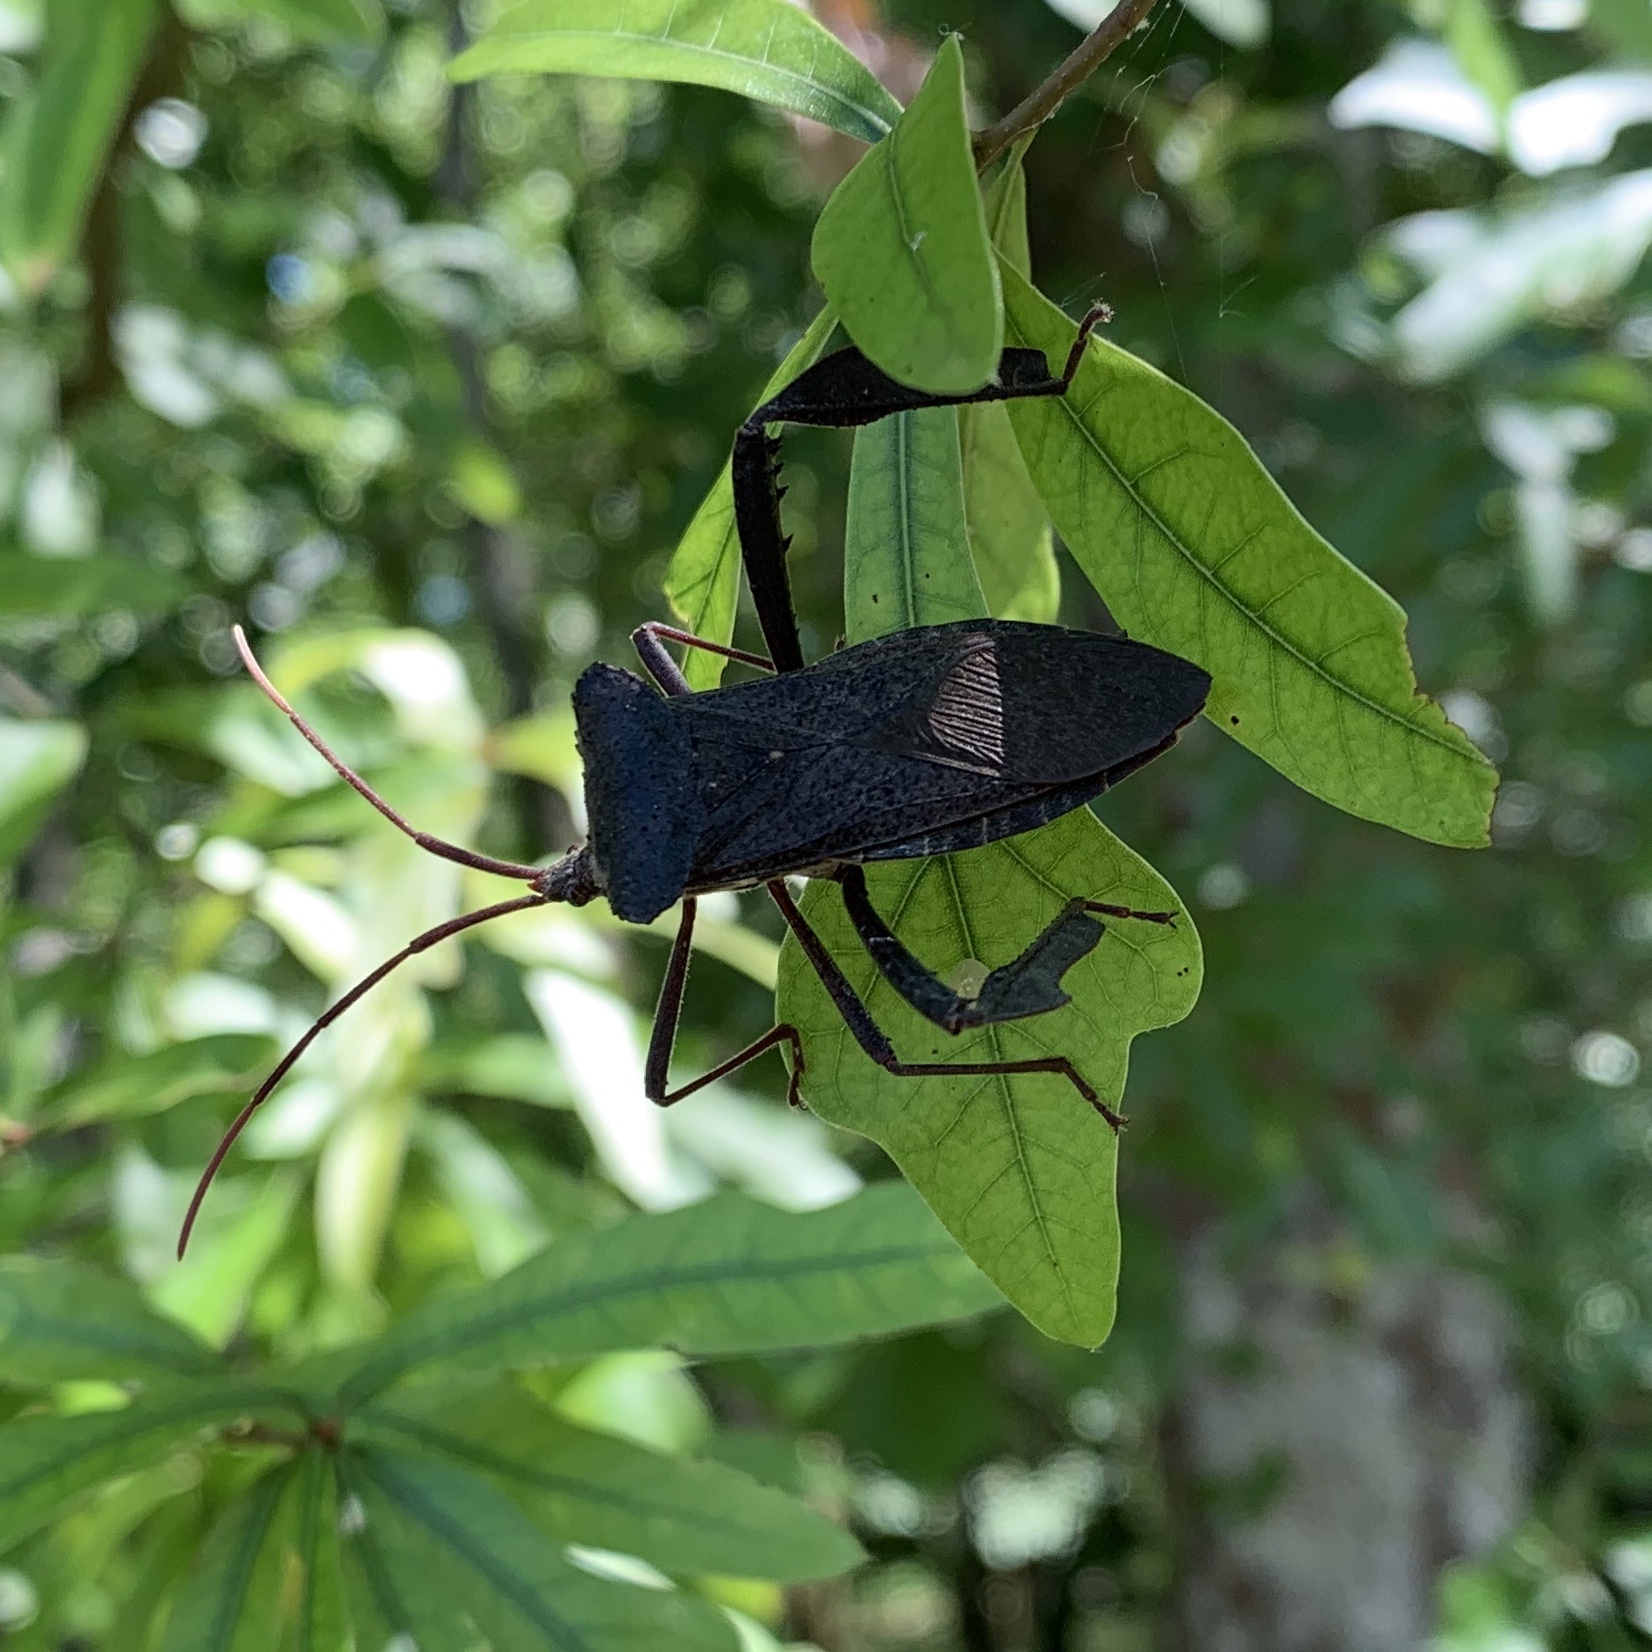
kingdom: Animalia
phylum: Arthropoda
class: Insecta
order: Hemiptera
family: Coreidae
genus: Acanthocephala
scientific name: Acanthocephala declivis
